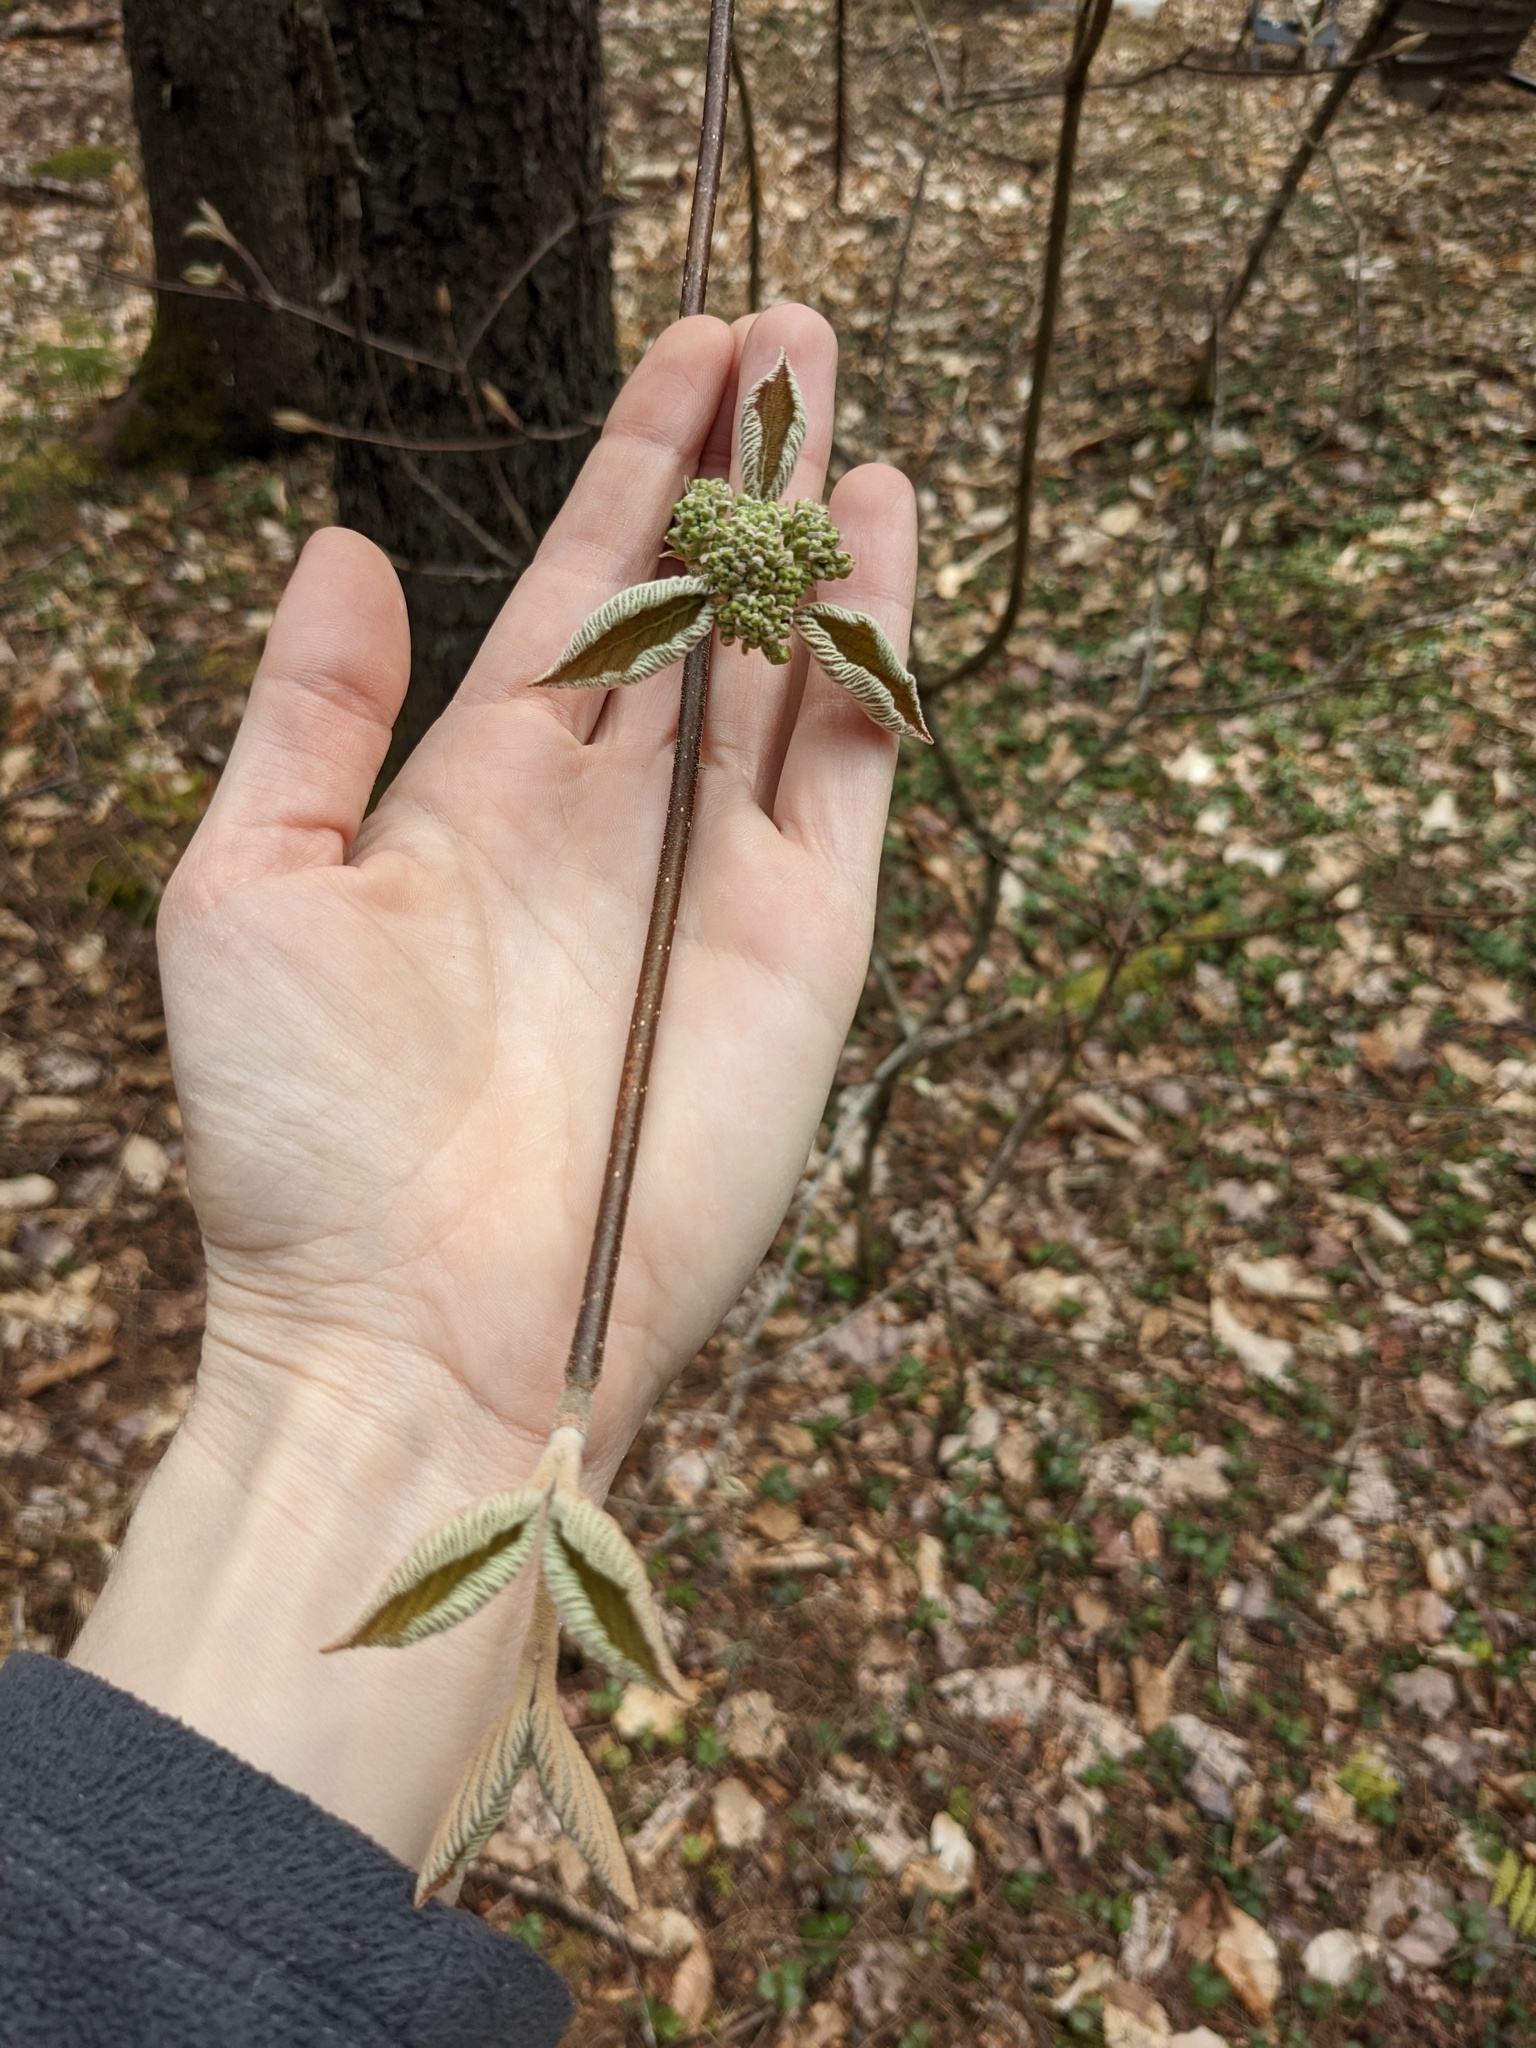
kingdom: Plantae
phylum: Tracheophyta
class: Magnoliopsida
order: Dipsacales
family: Viburnaceae
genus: Viburnum
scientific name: Viburnum lantanoides
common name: Hobblebush
